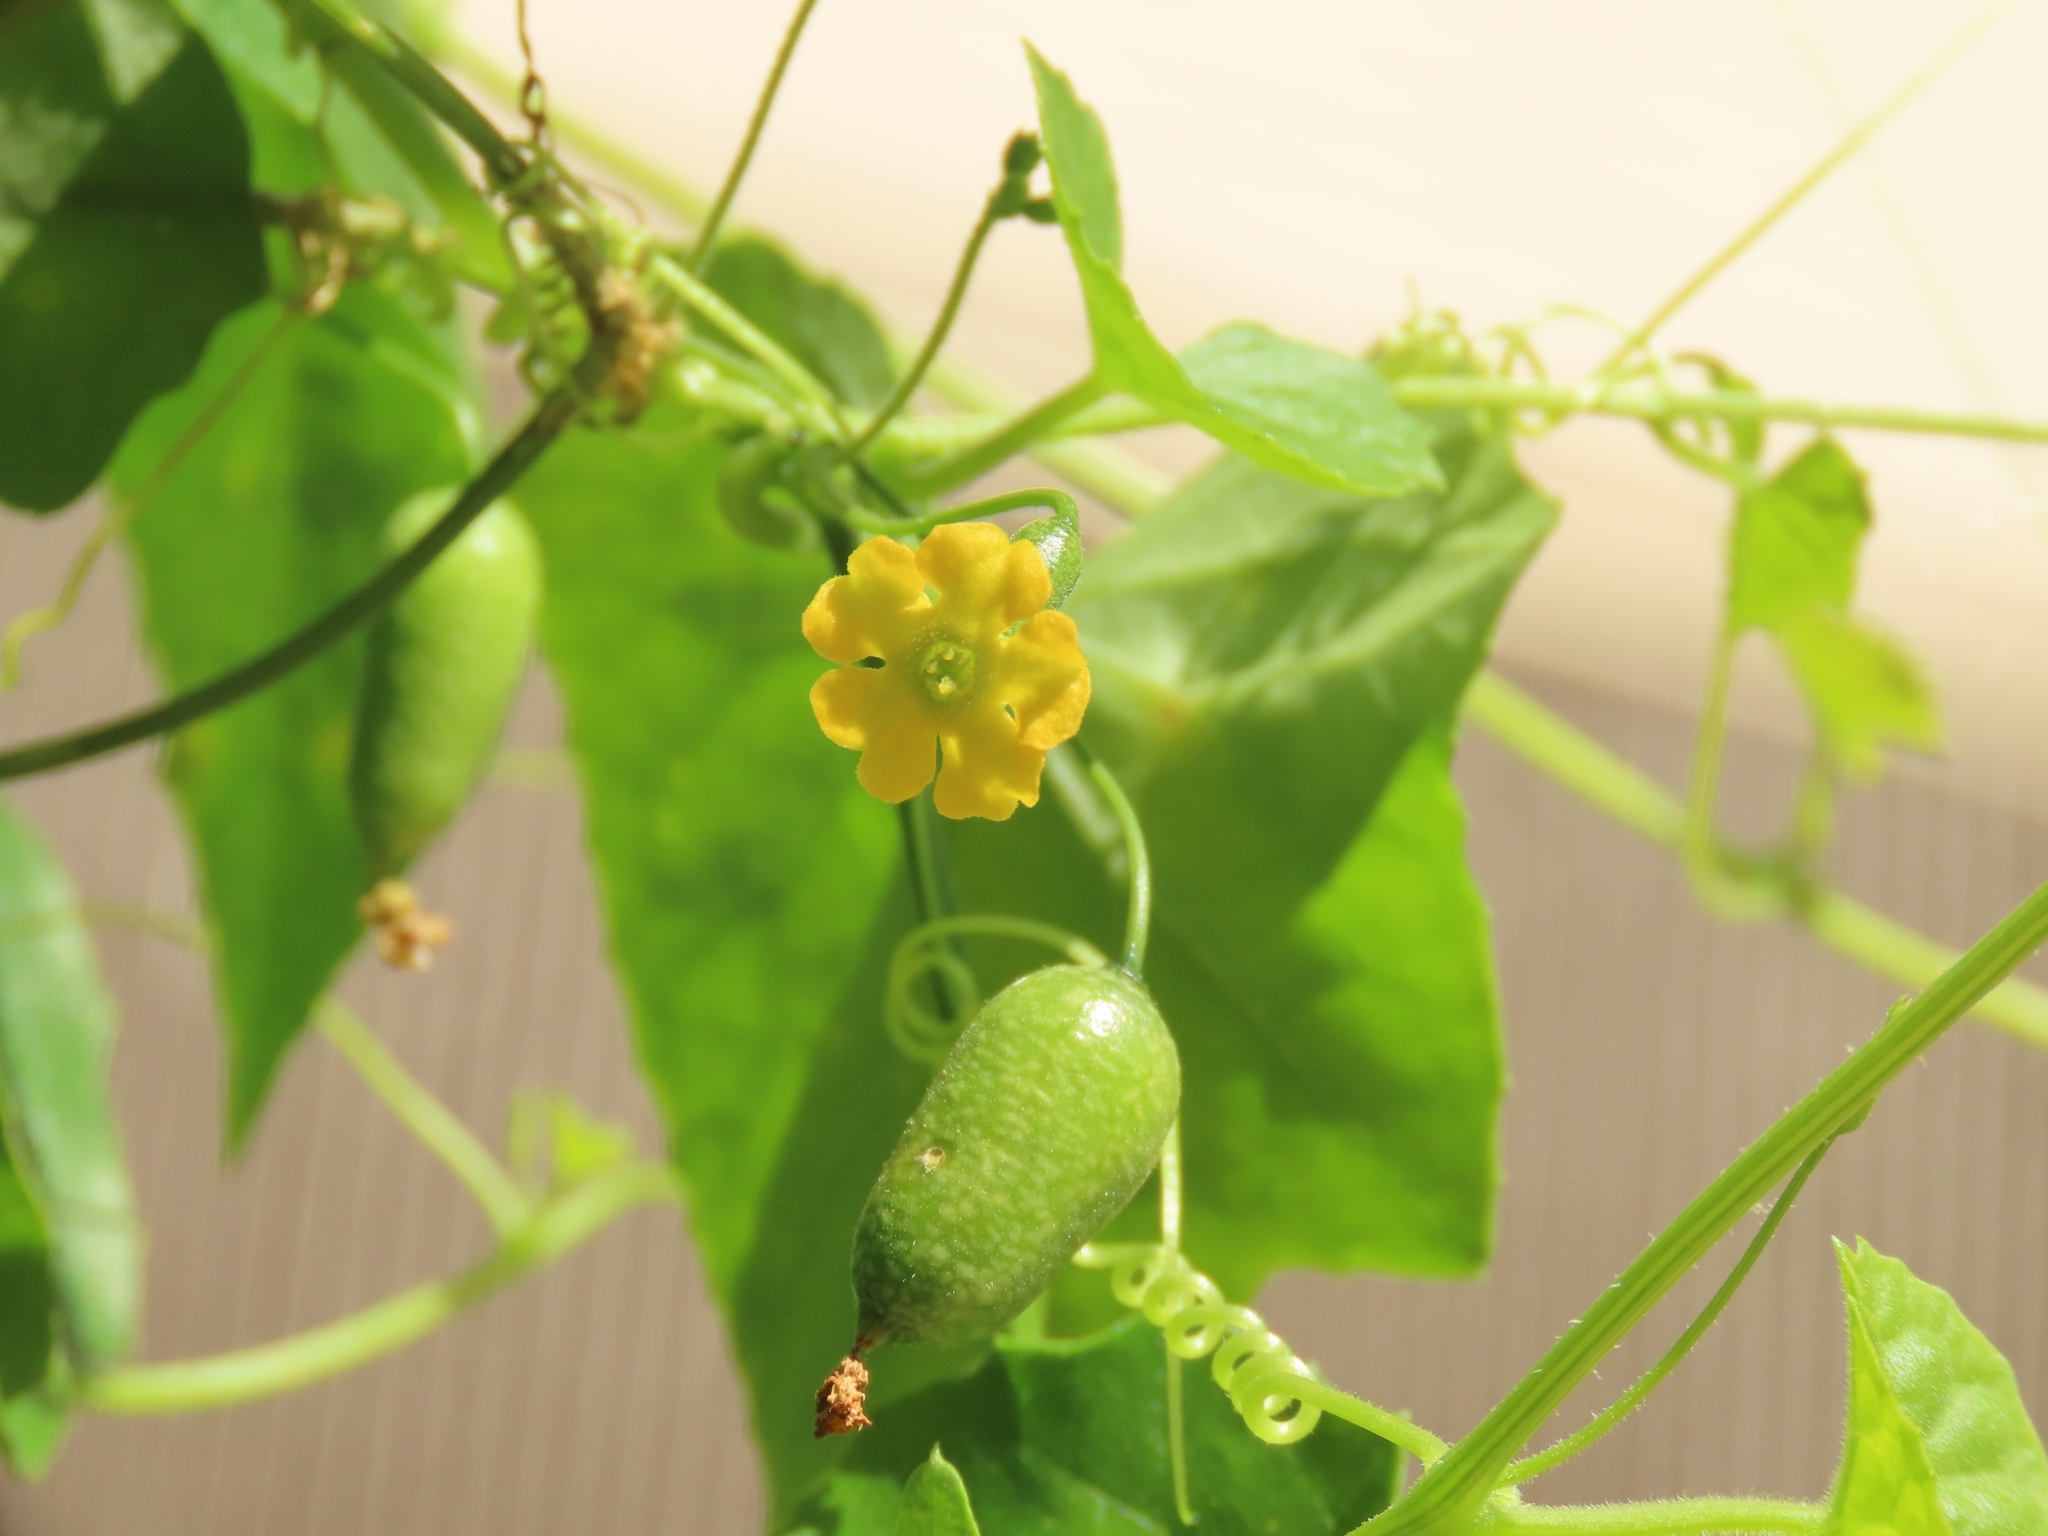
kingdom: Plantae
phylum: Tracheophyta
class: Magnoliopsida
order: Cucurbitales
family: Cucurbitaceae
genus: Melothria
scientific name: Melothria pendula
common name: Creeping-cucumber
